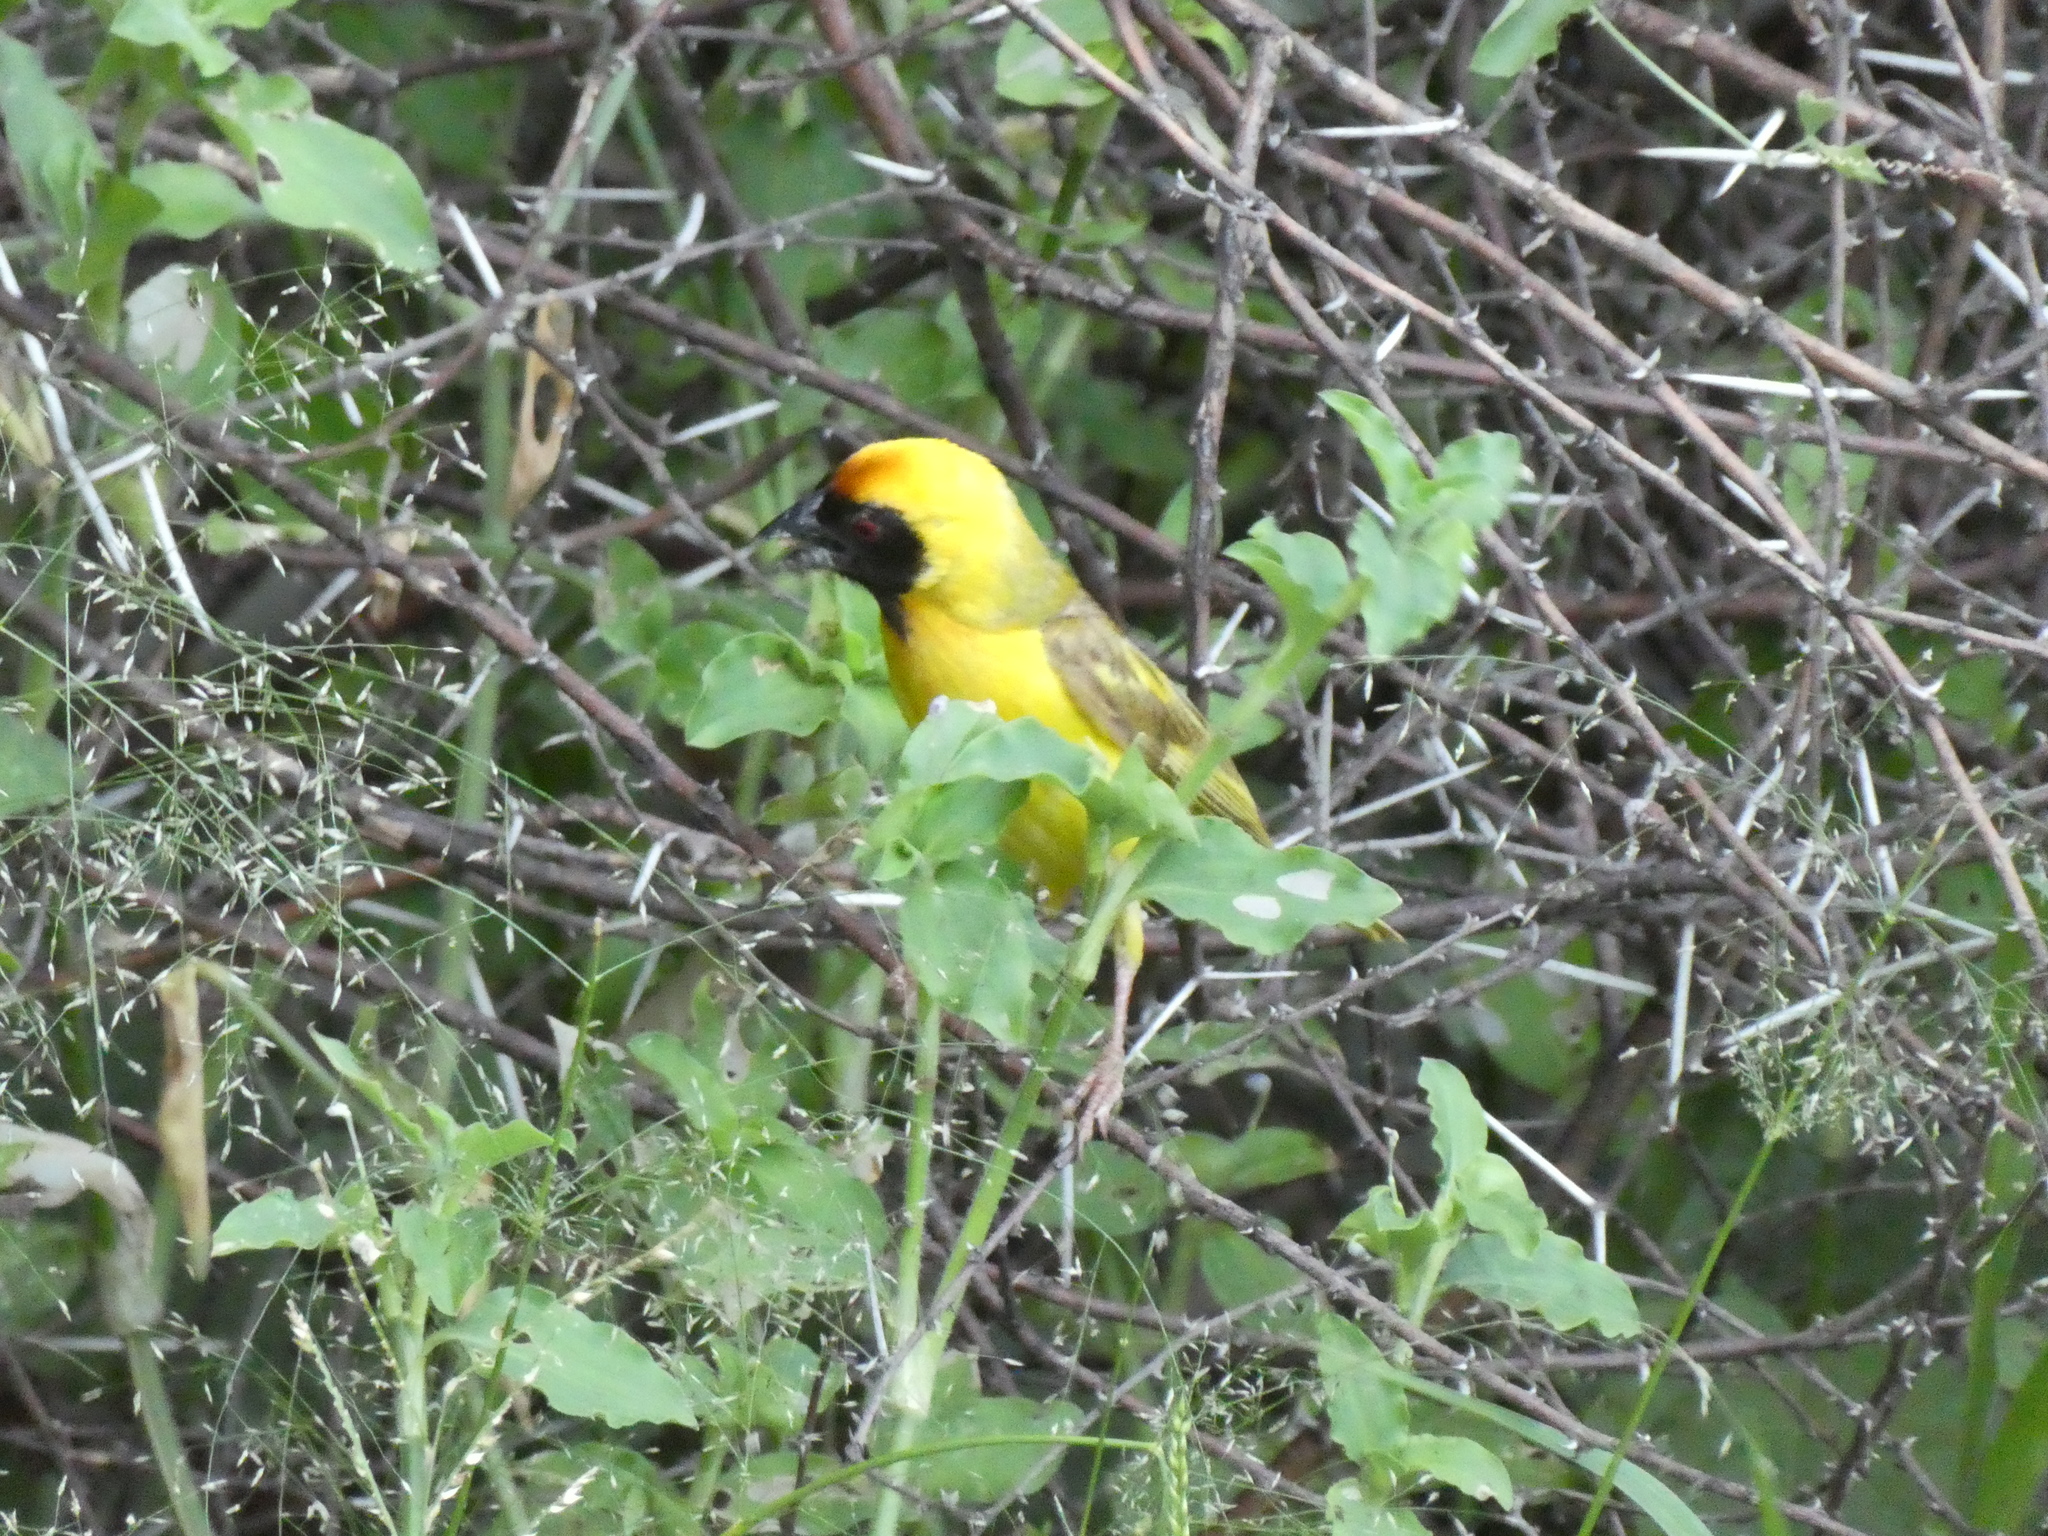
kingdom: Animalia
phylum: Chordata
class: Aves
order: Passeriformes
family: Ploceidae
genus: Ploceus
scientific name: Ploceus velatus
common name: Southern masked weaver
